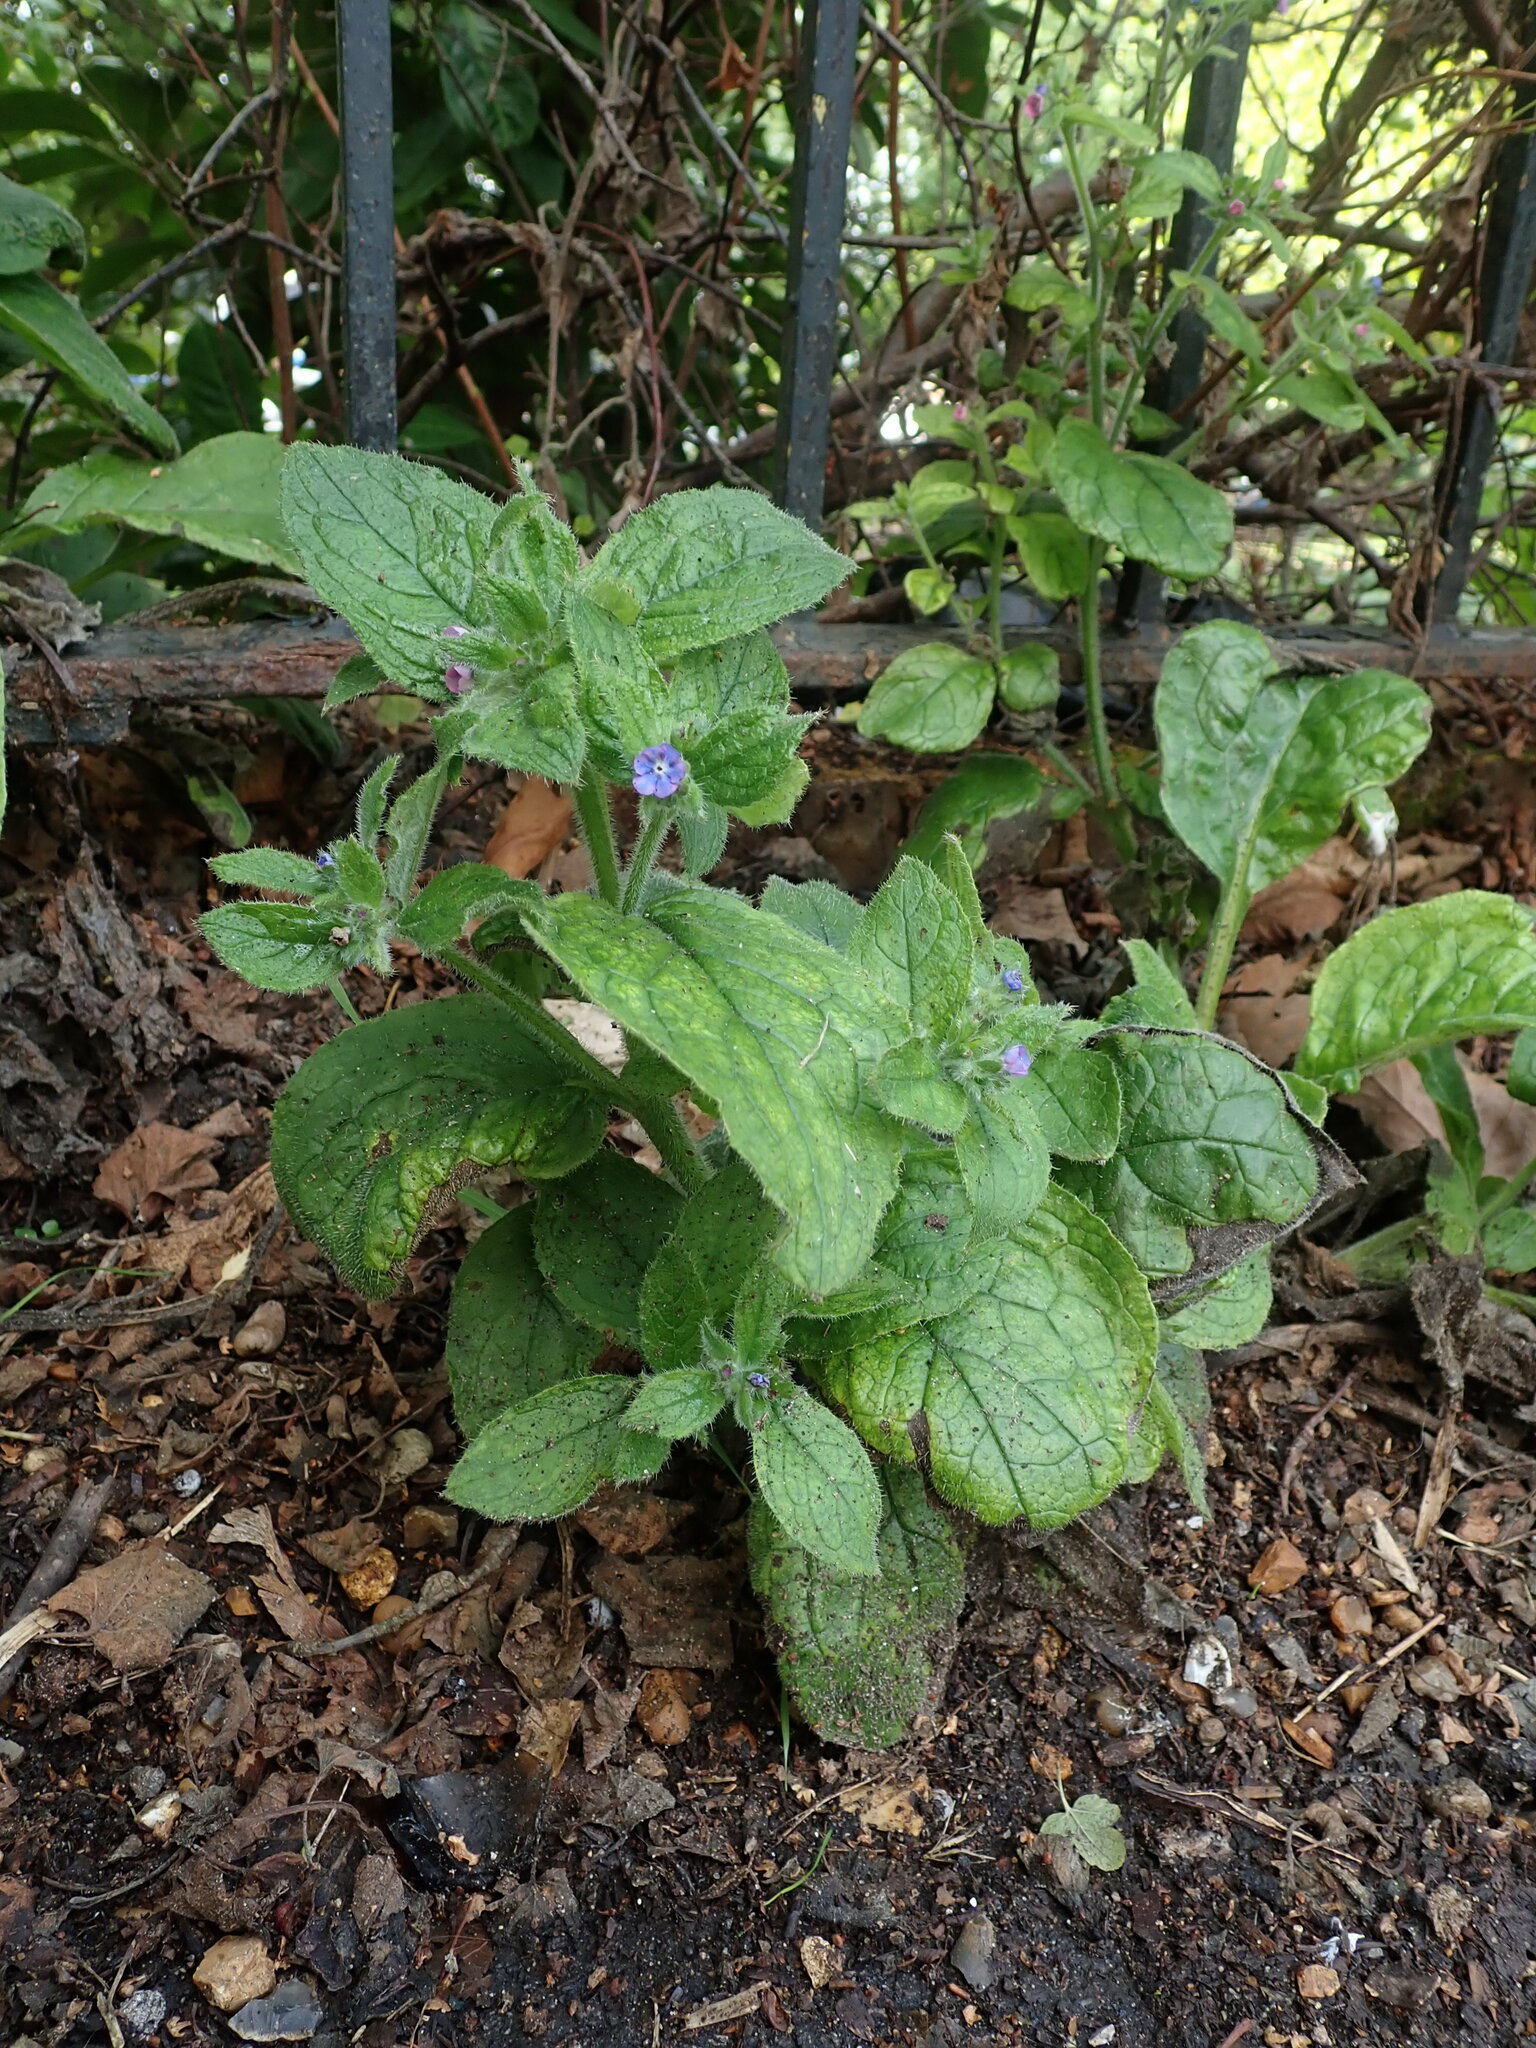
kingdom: Plantae
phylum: Tracheophyta
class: Magnoliopsida
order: Boraginales
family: Boraginaceae
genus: Pentaglottis
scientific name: Pentaglottis sempervirens
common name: Green alkanet
